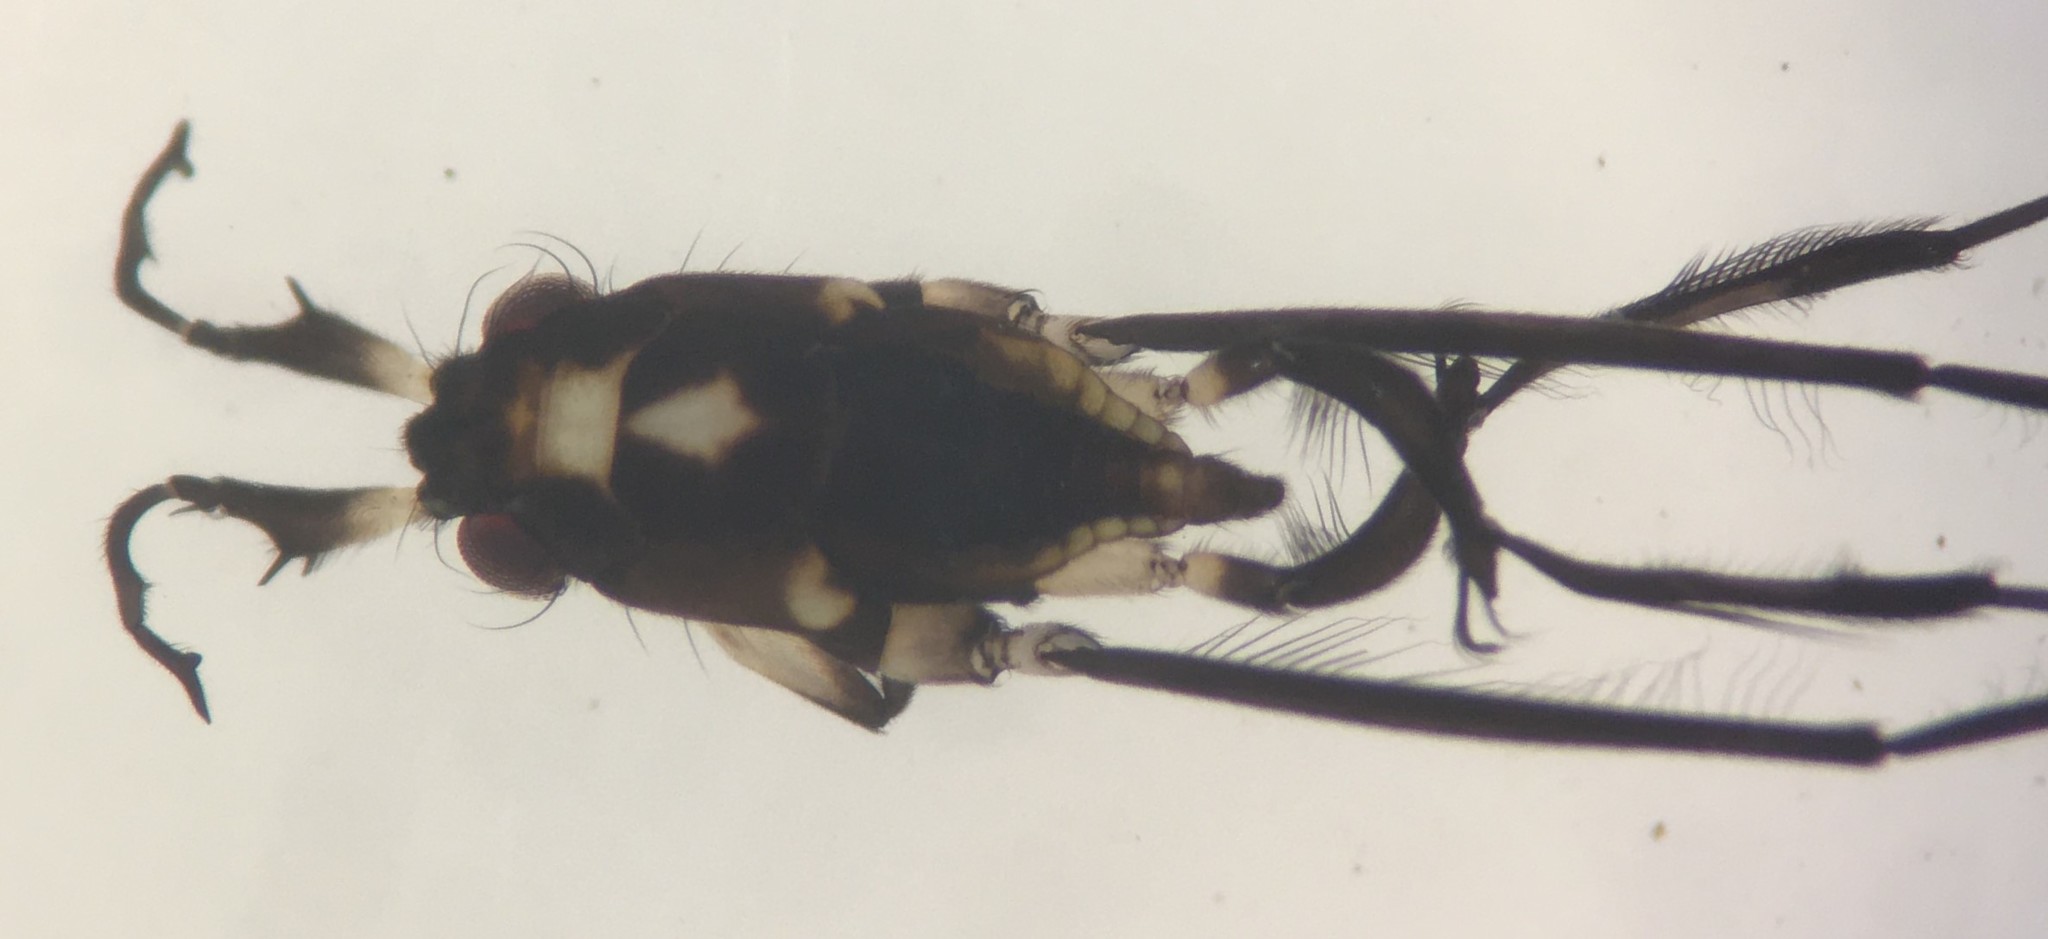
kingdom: Animalia
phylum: Arthropoda
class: Insecta
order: Hemiptera
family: Gerridae
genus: Rheumatobates
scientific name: Rheumatobates rileyi
